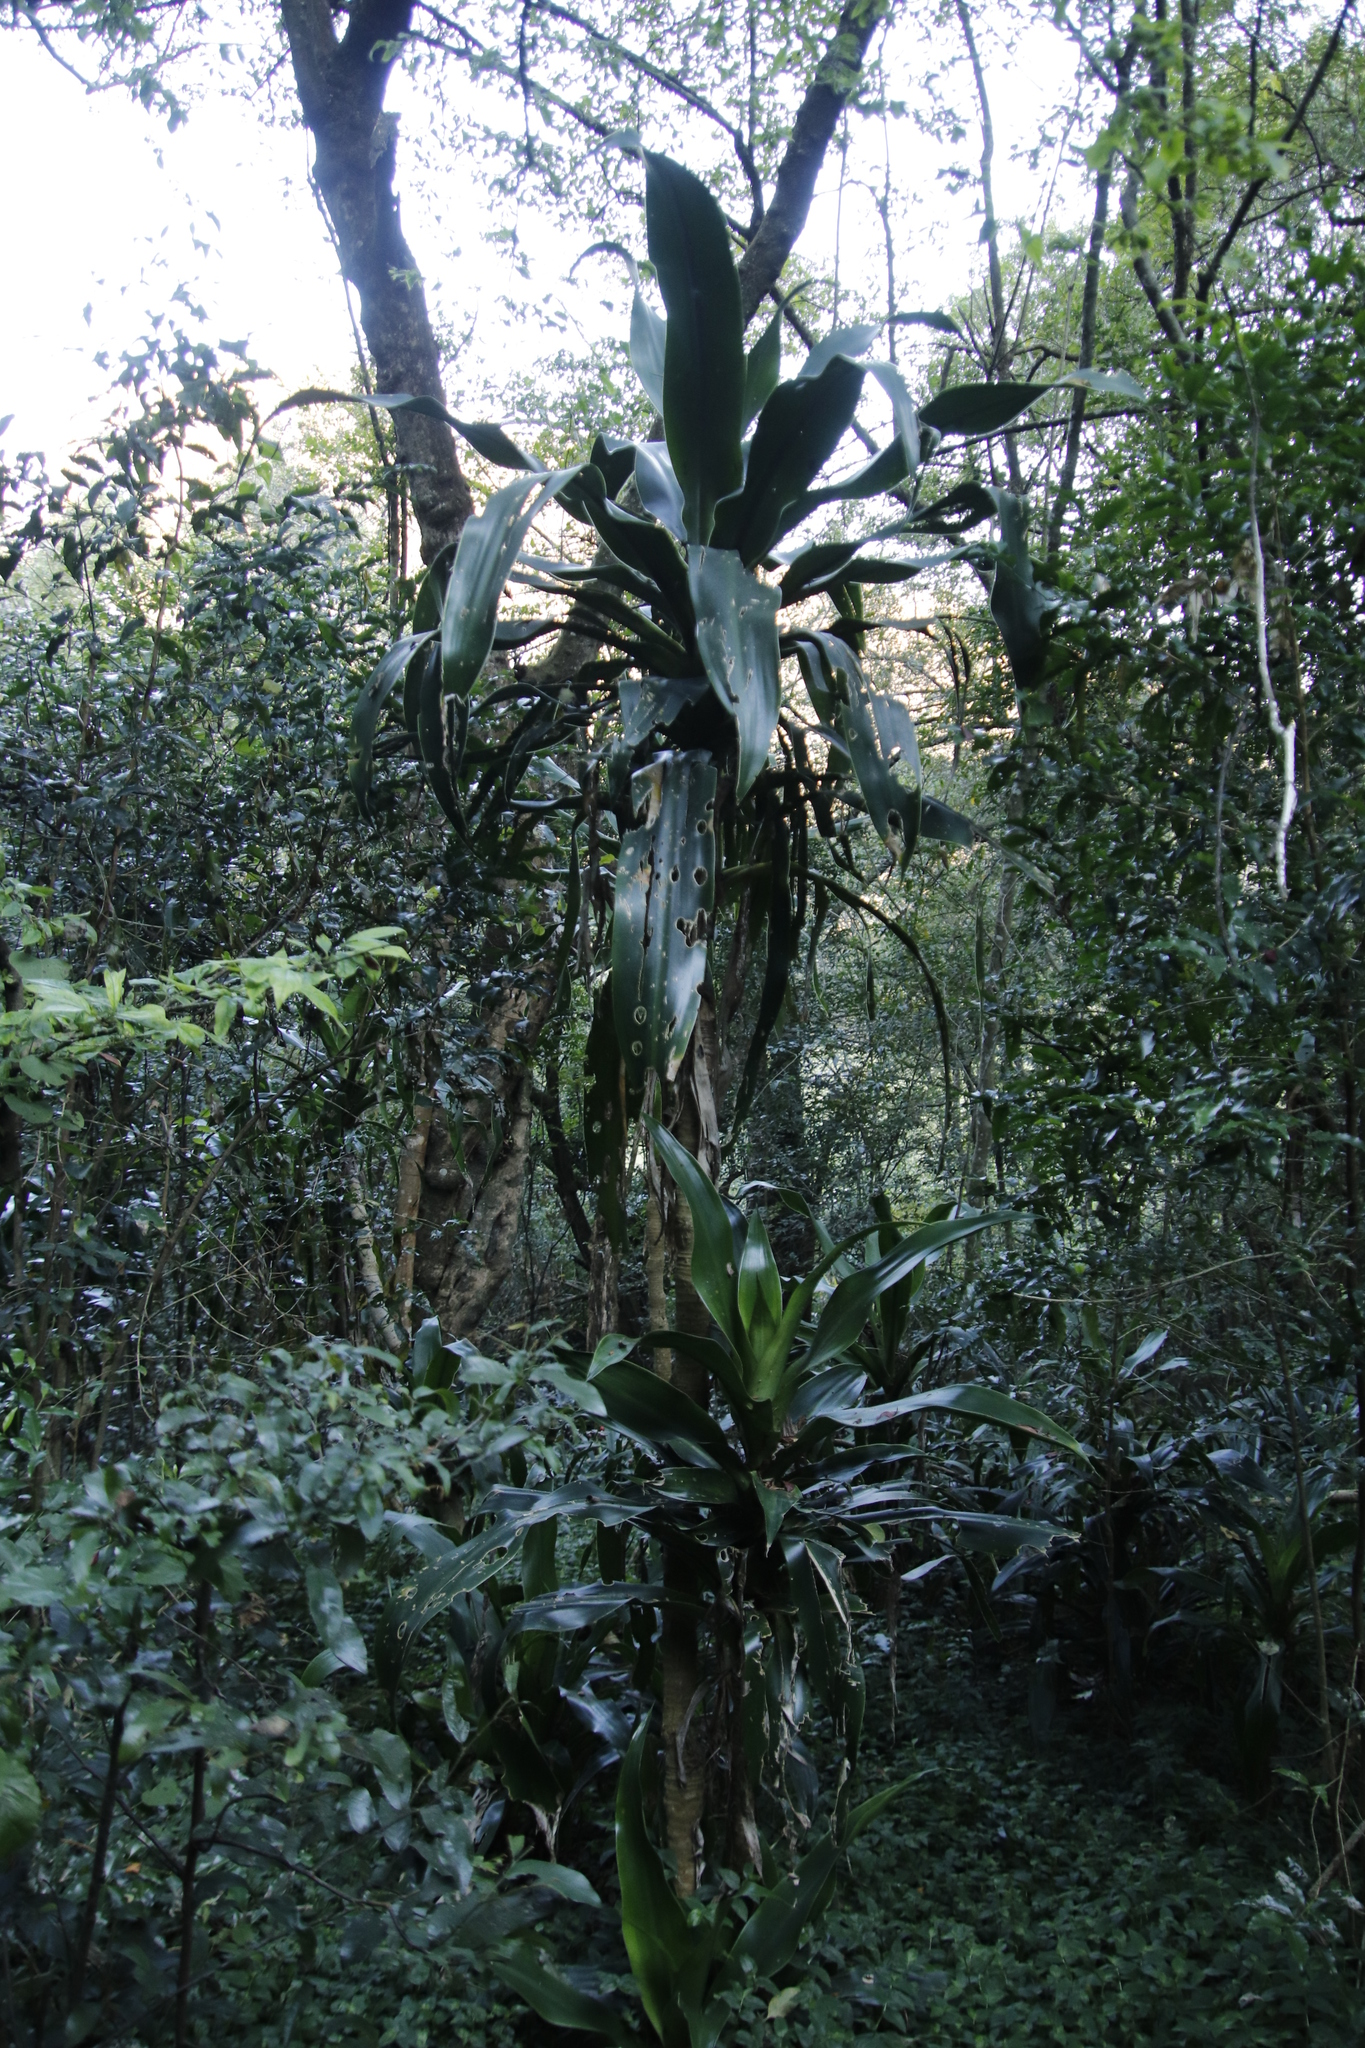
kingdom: Plantae
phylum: Tracheophyta
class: Liliopsida
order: Asparagales
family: Asparagaceae
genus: Dracaena
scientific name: Dracaena aletriformis
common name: Large-leaved dragon tree
